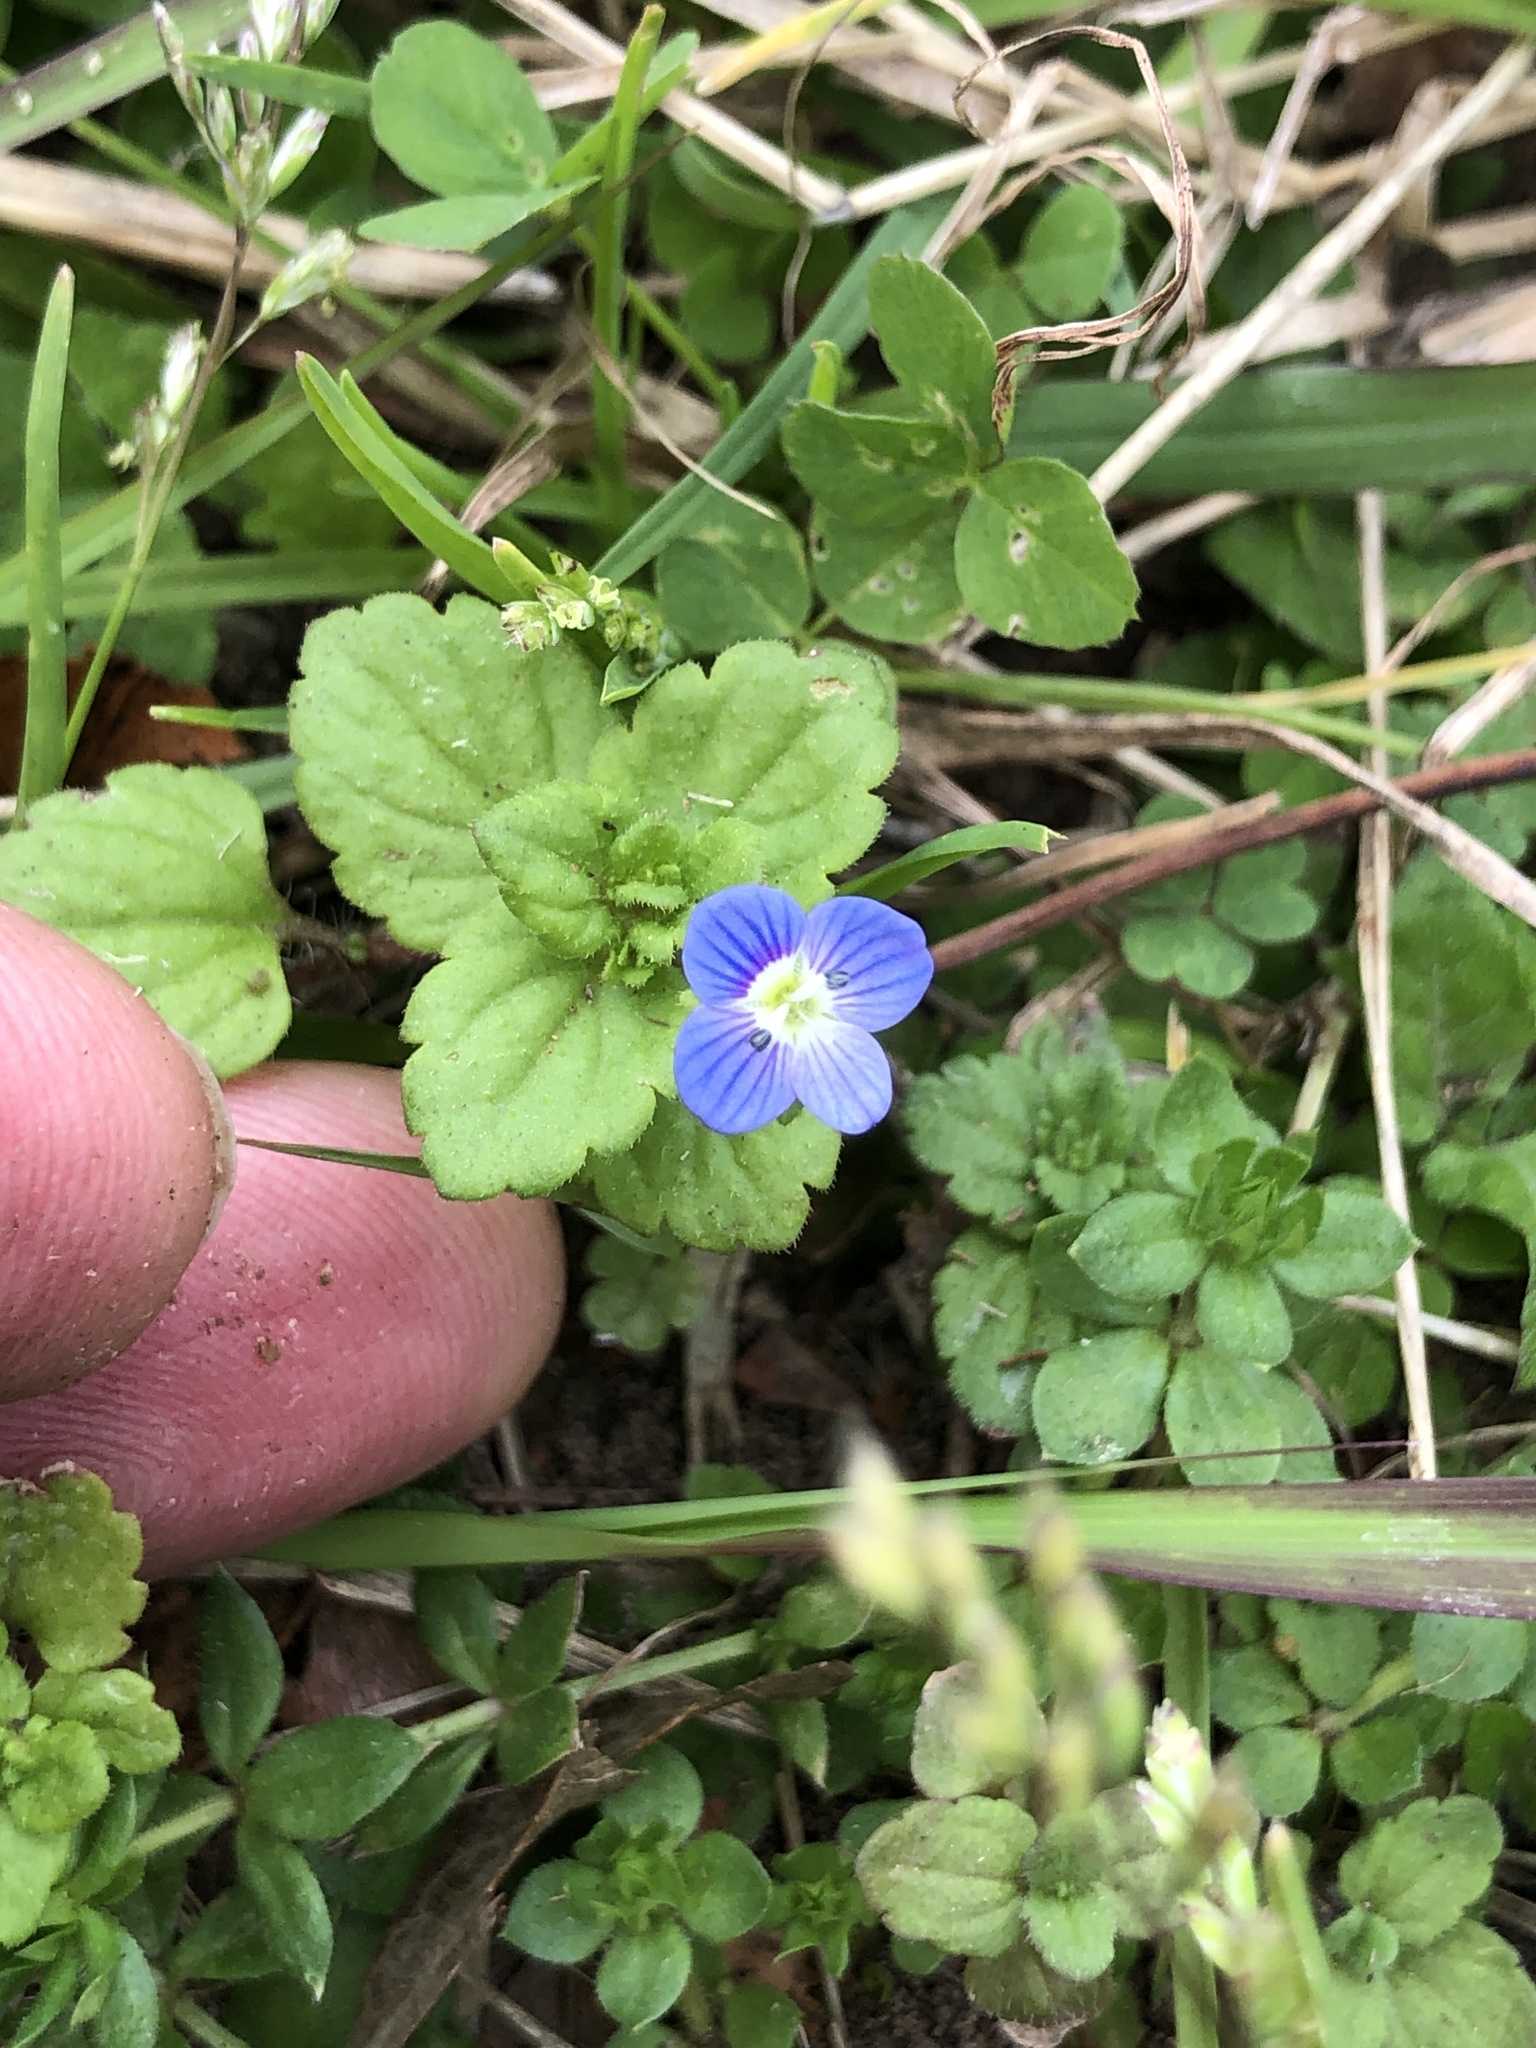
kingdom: Plantae
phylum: Tracheophyta
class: Magnoliopsida
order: Lamiales
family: Plantaginaceae
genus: Veronica
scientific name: Veronica persica
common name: Common field-speedwell
